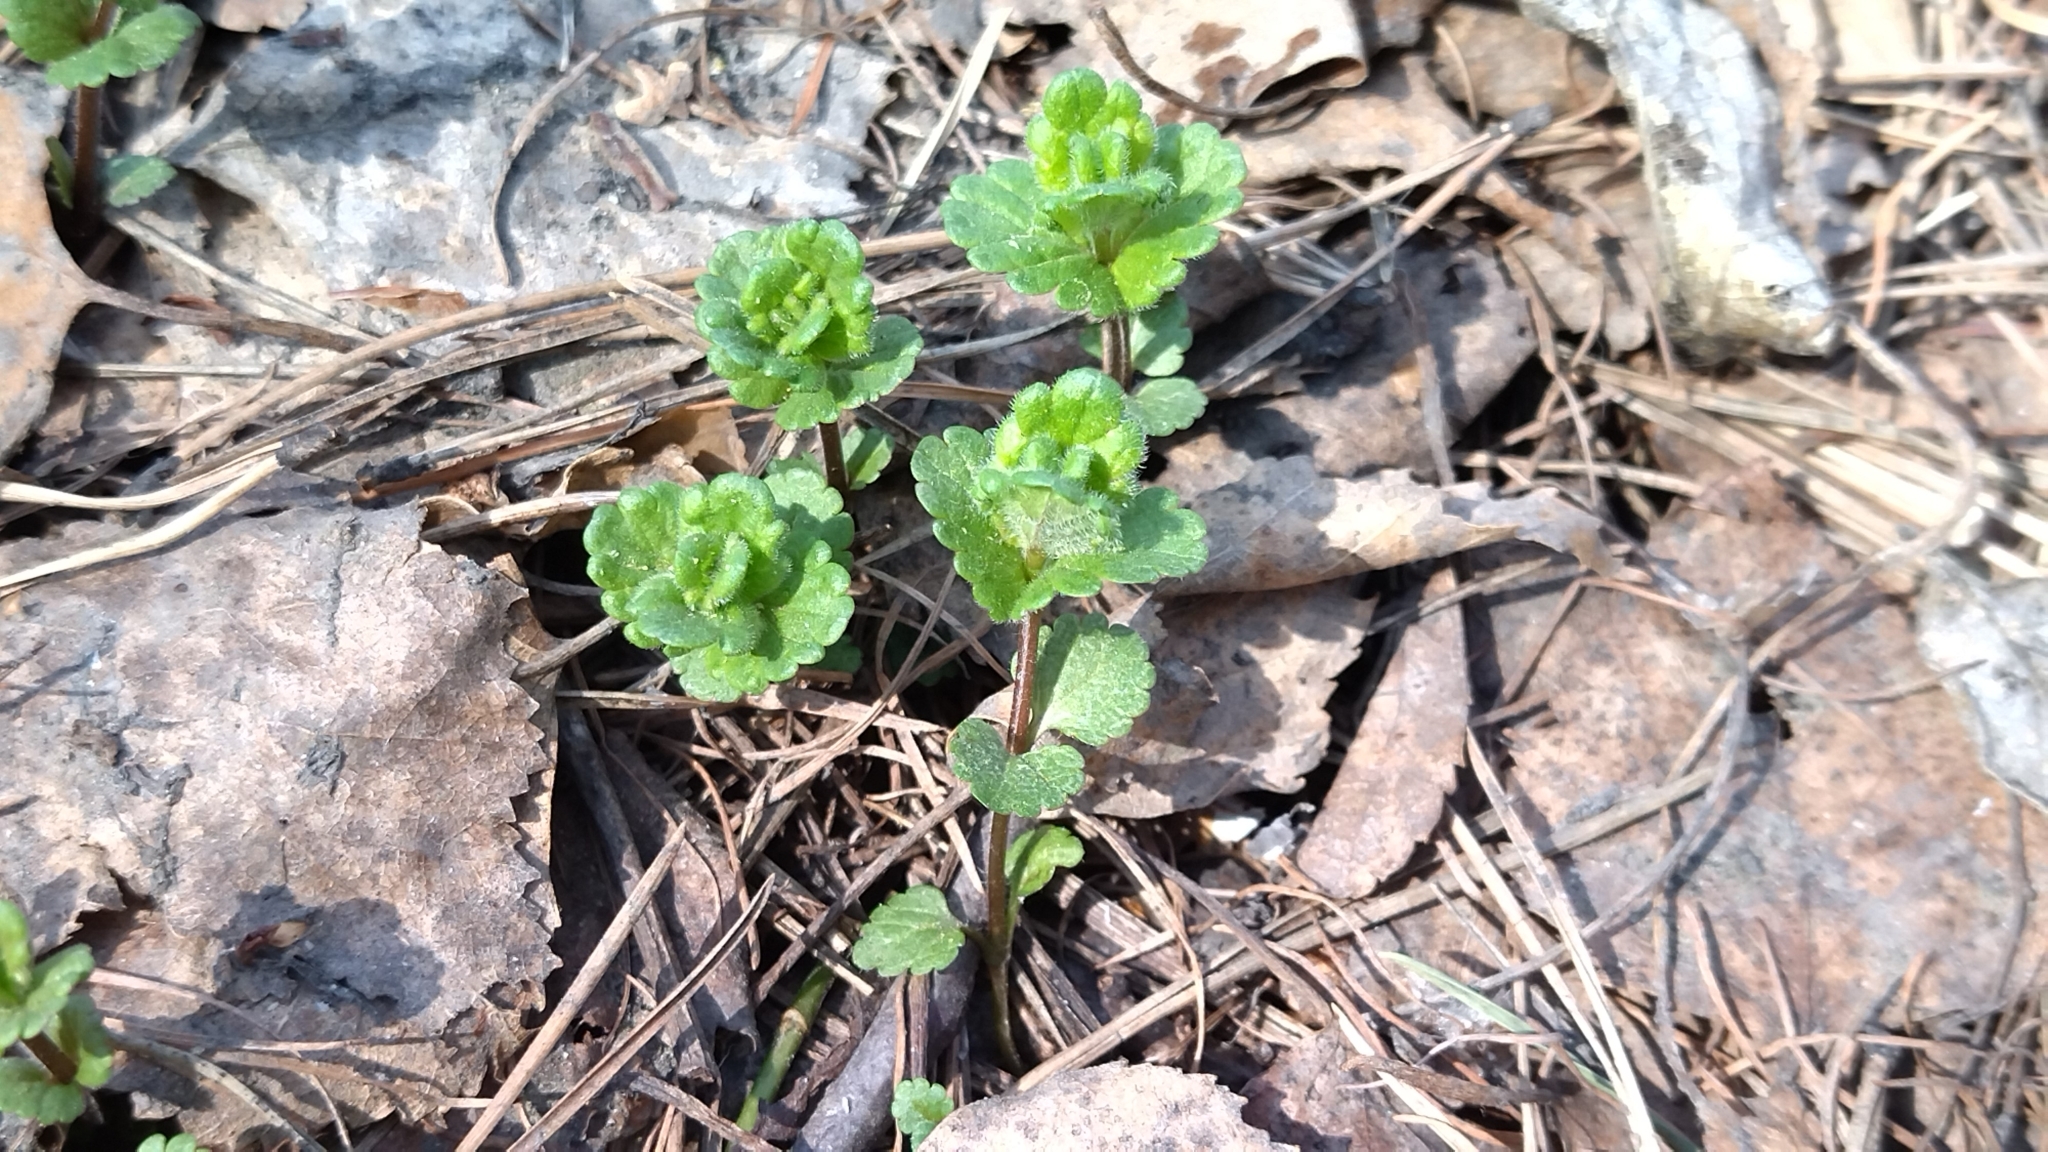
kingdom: Plantae
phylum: Tracheophyta
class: Magnoliopsida
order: Lamiales
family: Plantaginaceae
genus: Veronica
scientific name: Veronica chamaedrys
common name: Germander speedwell
